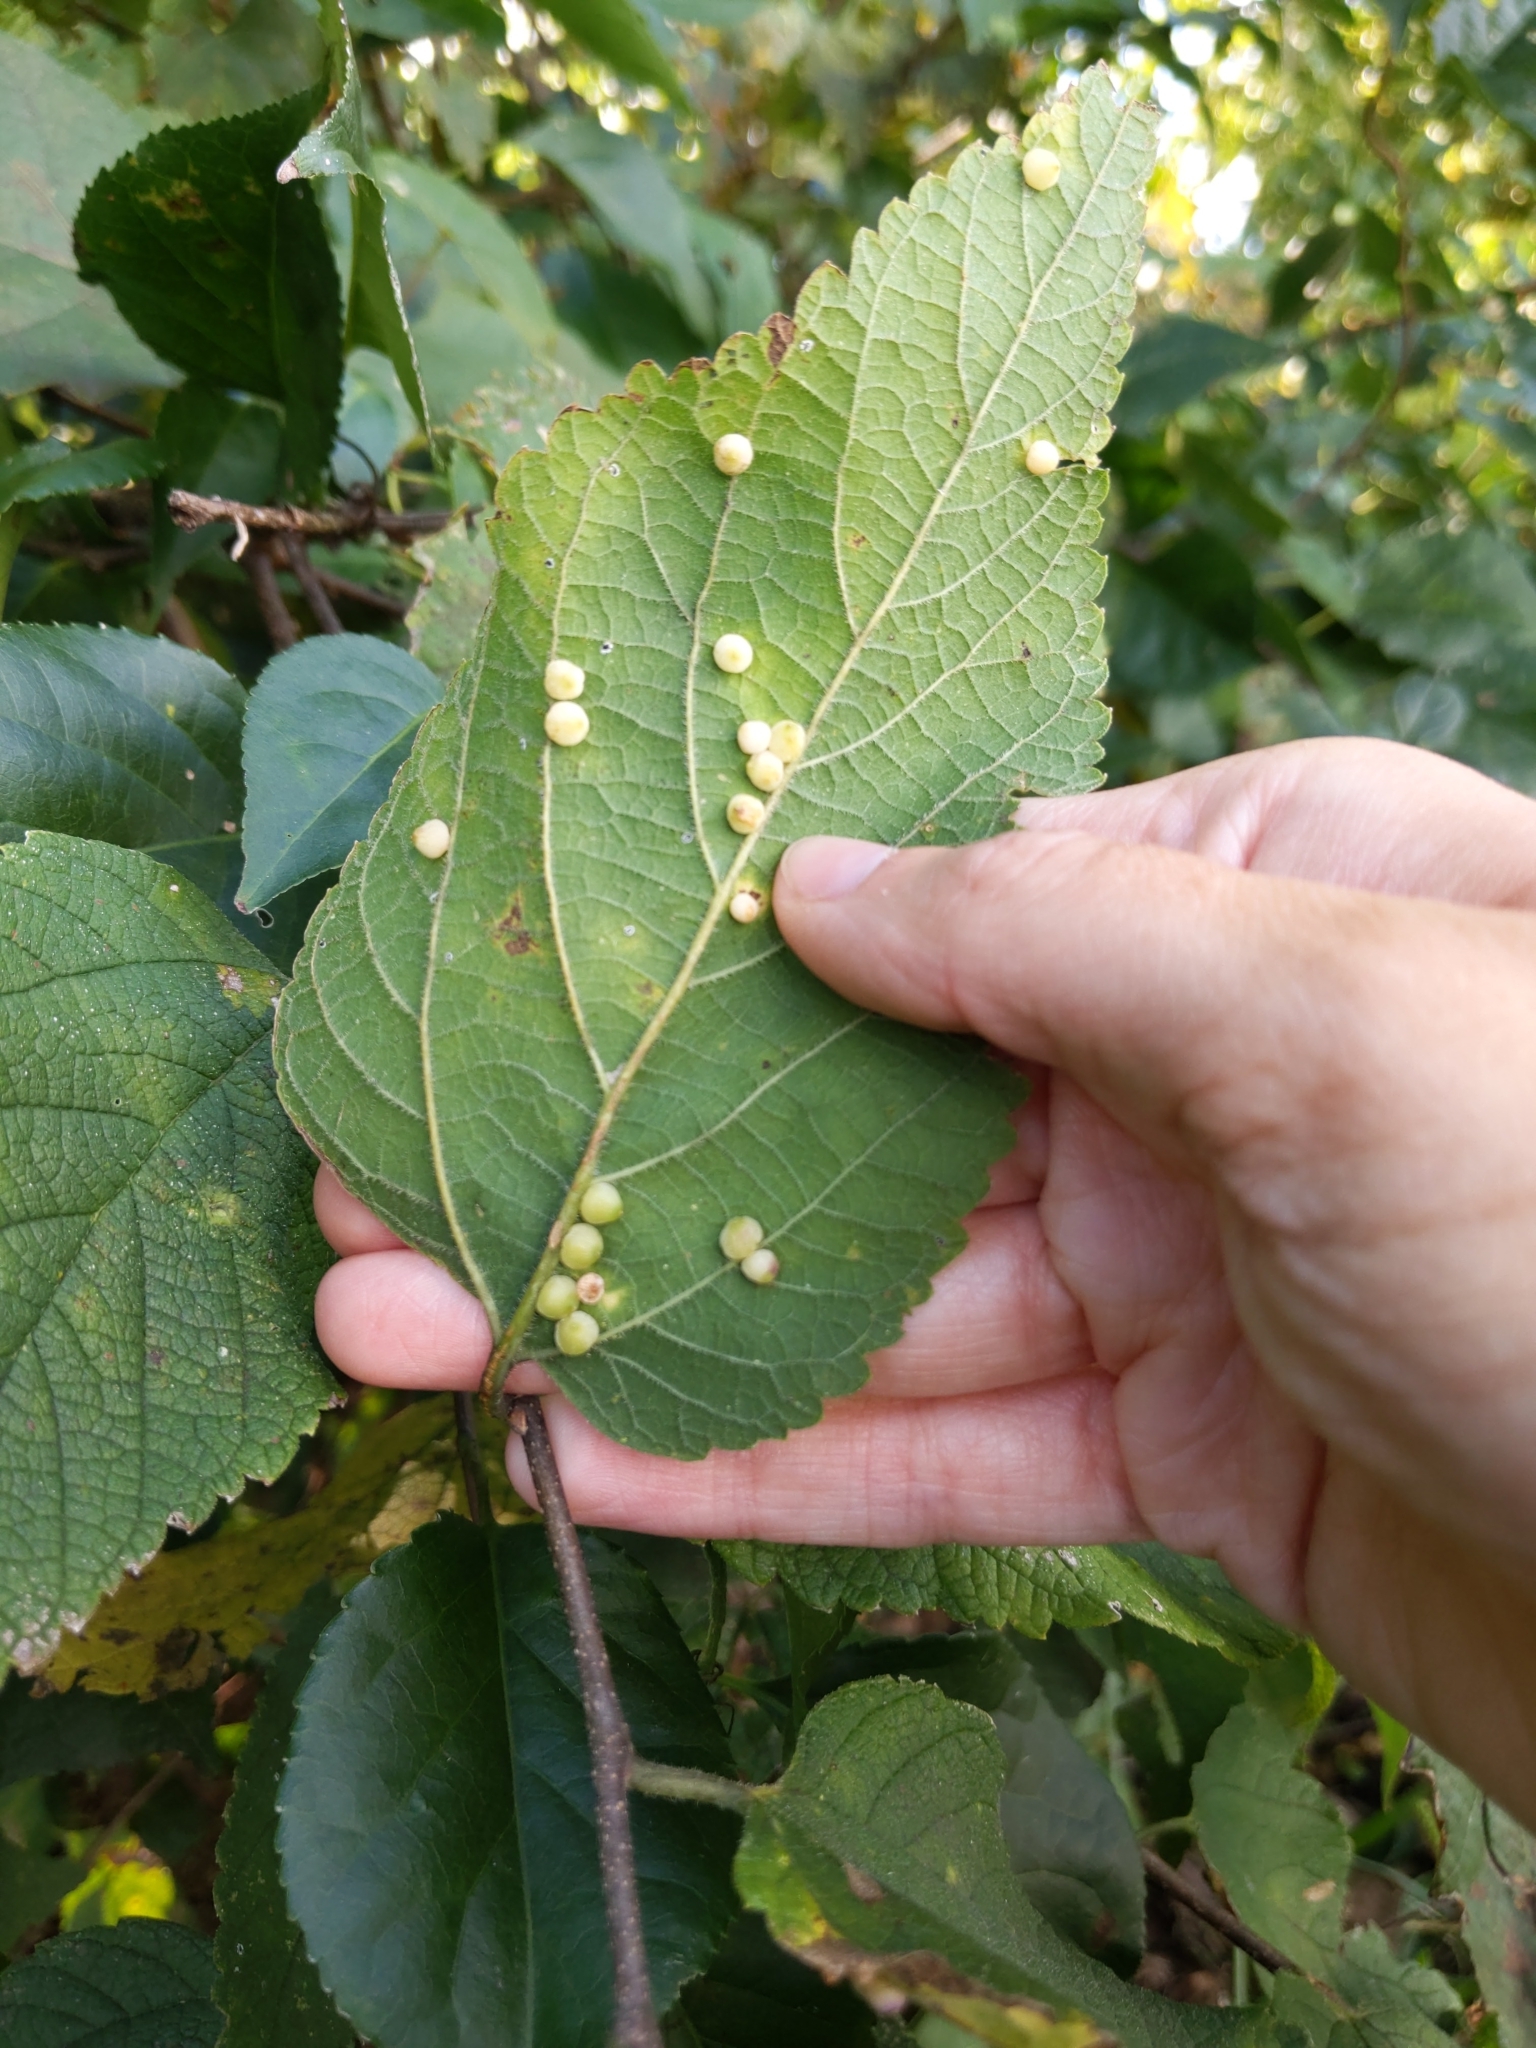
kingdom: Animalia
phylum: Arthropoda
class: Insecta
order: Diptera
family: Cecidomyiidae
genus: Celticecis
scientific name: Celticecis globosa
